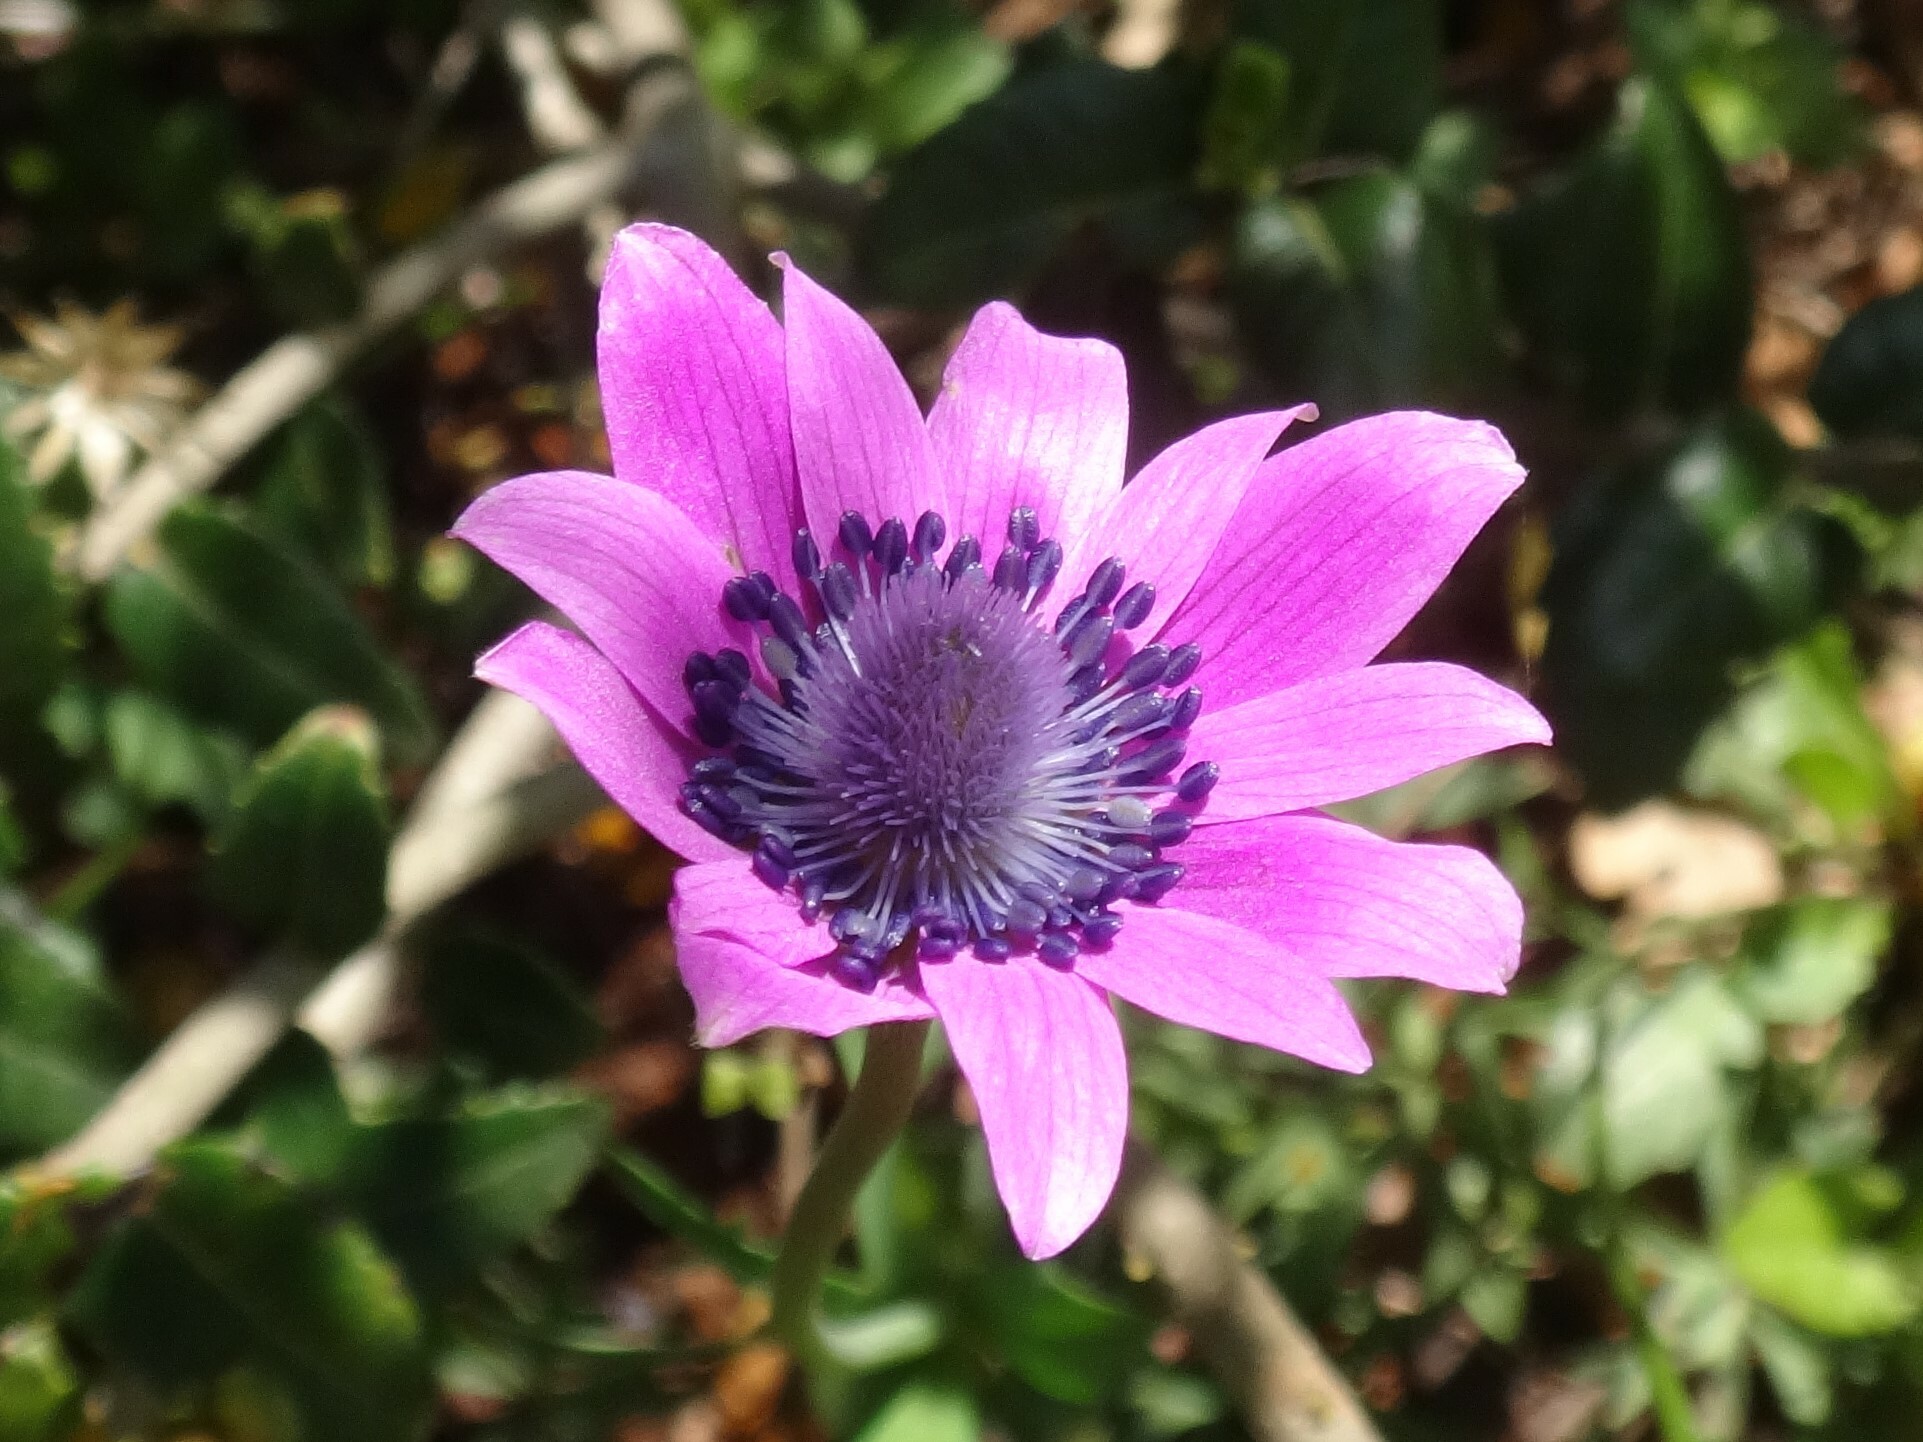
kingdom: Plantae
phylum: Tracheophyta
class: Magnoliopsida
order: Ranunculales
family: Ranunculaceae
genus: Anemone
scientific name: Anemone hortensis
